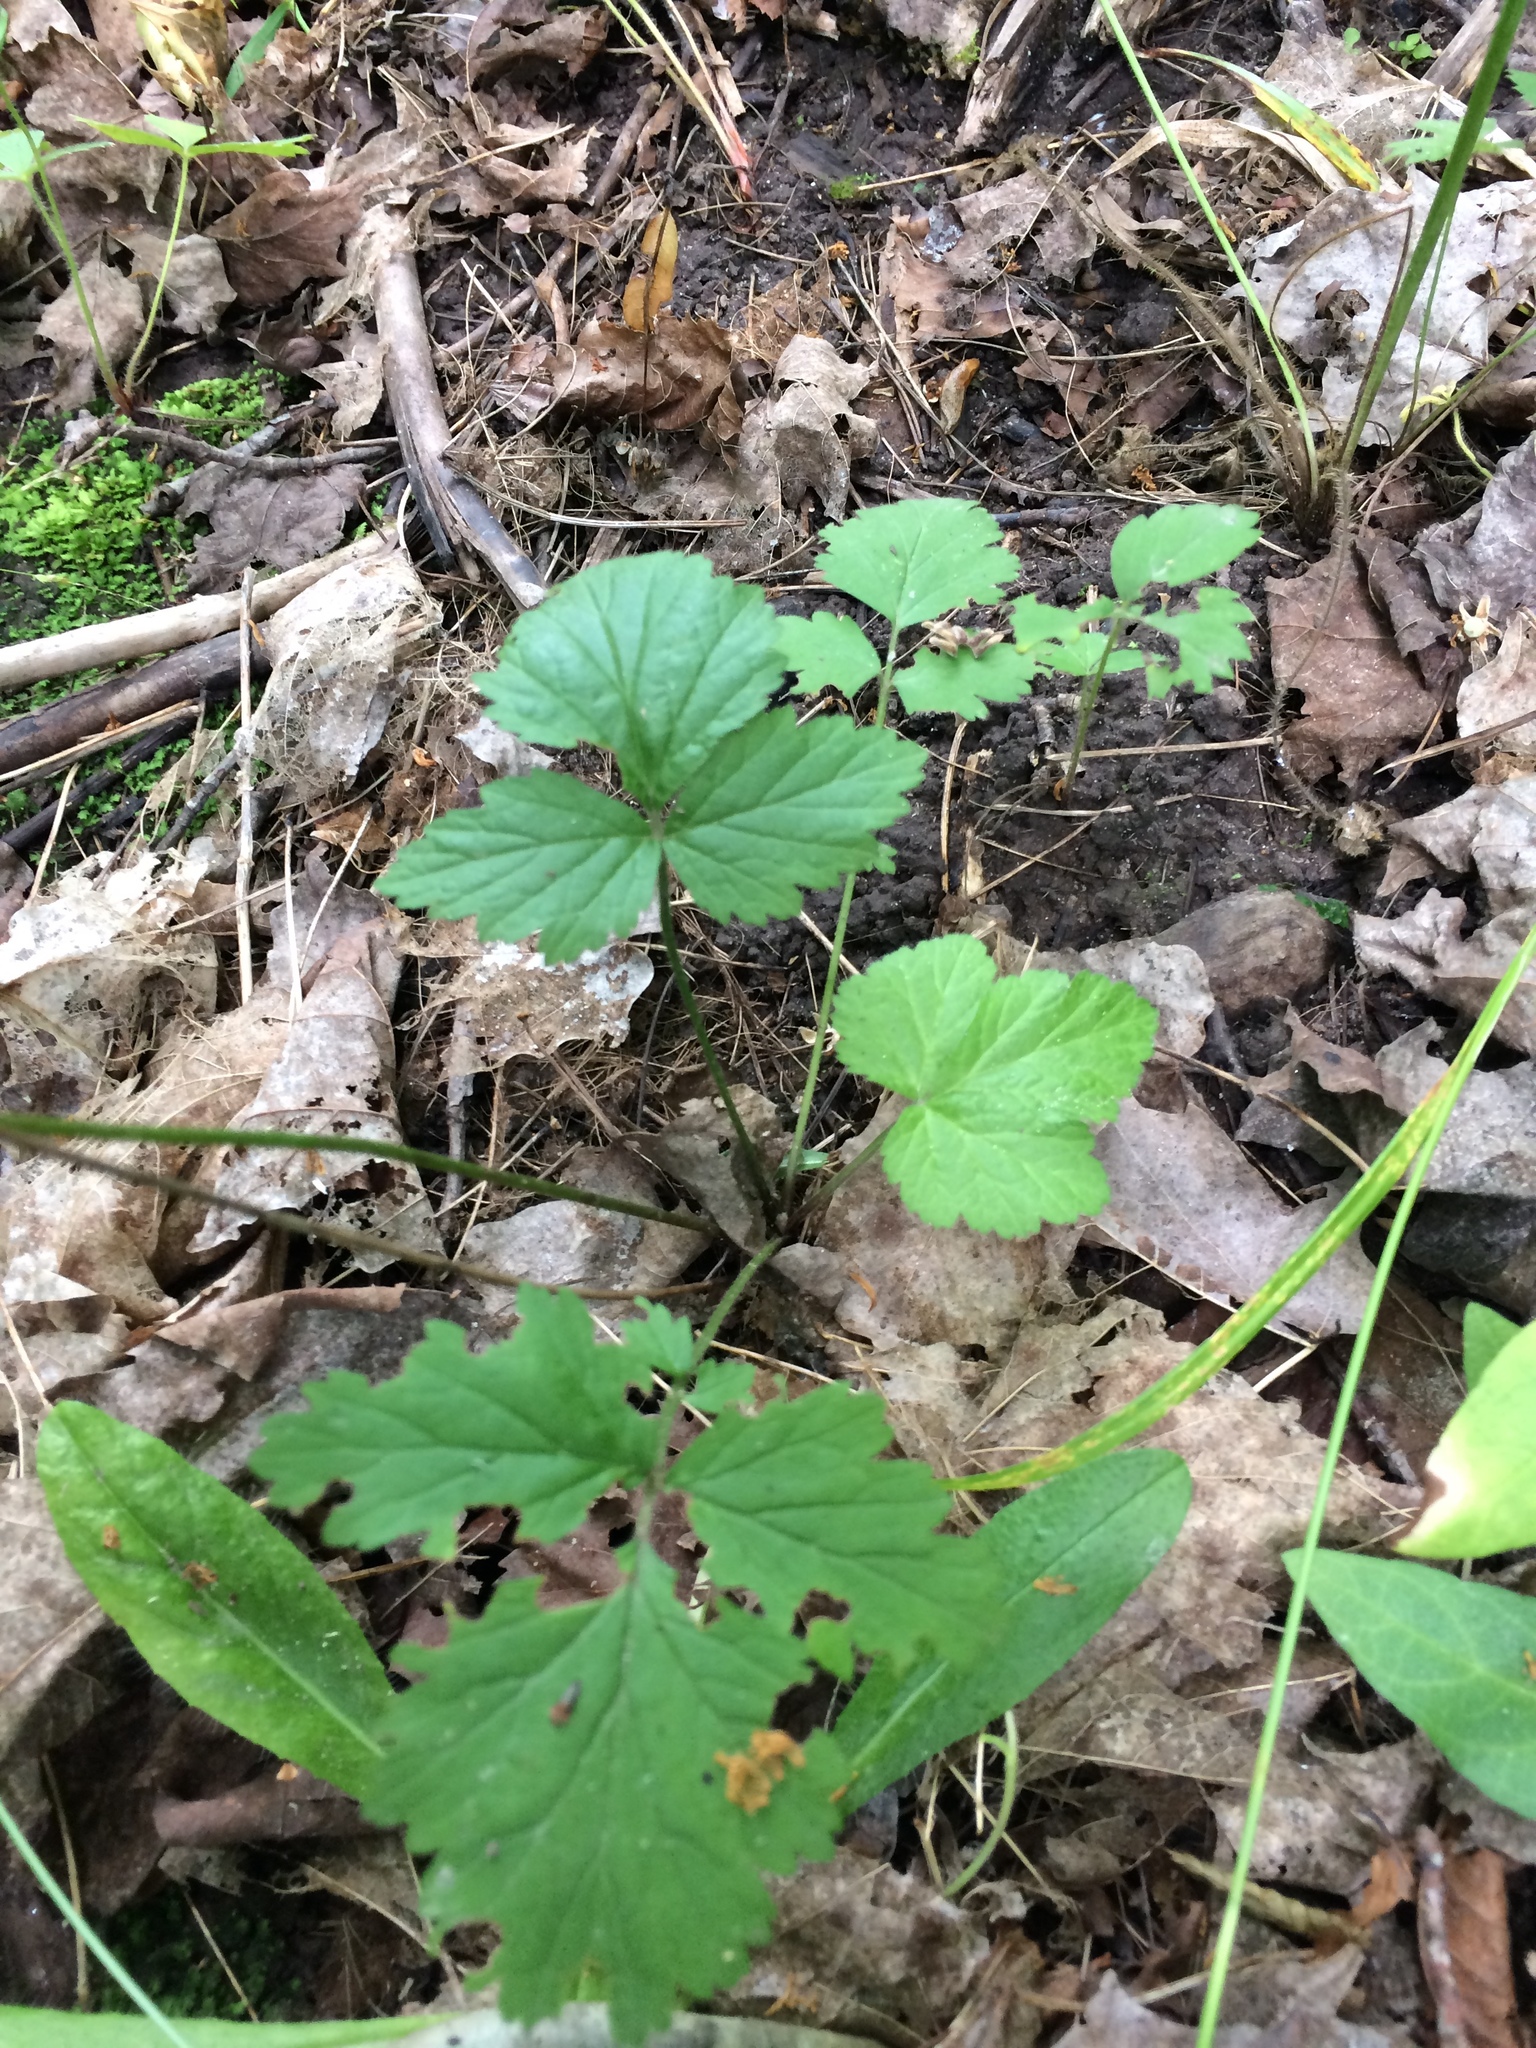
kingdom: Plantae
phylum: Tracheophyta
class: Magnoliopsida
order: Rosales
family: Rosaceae
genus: Geum
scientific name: Geum canadense
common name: White avens
